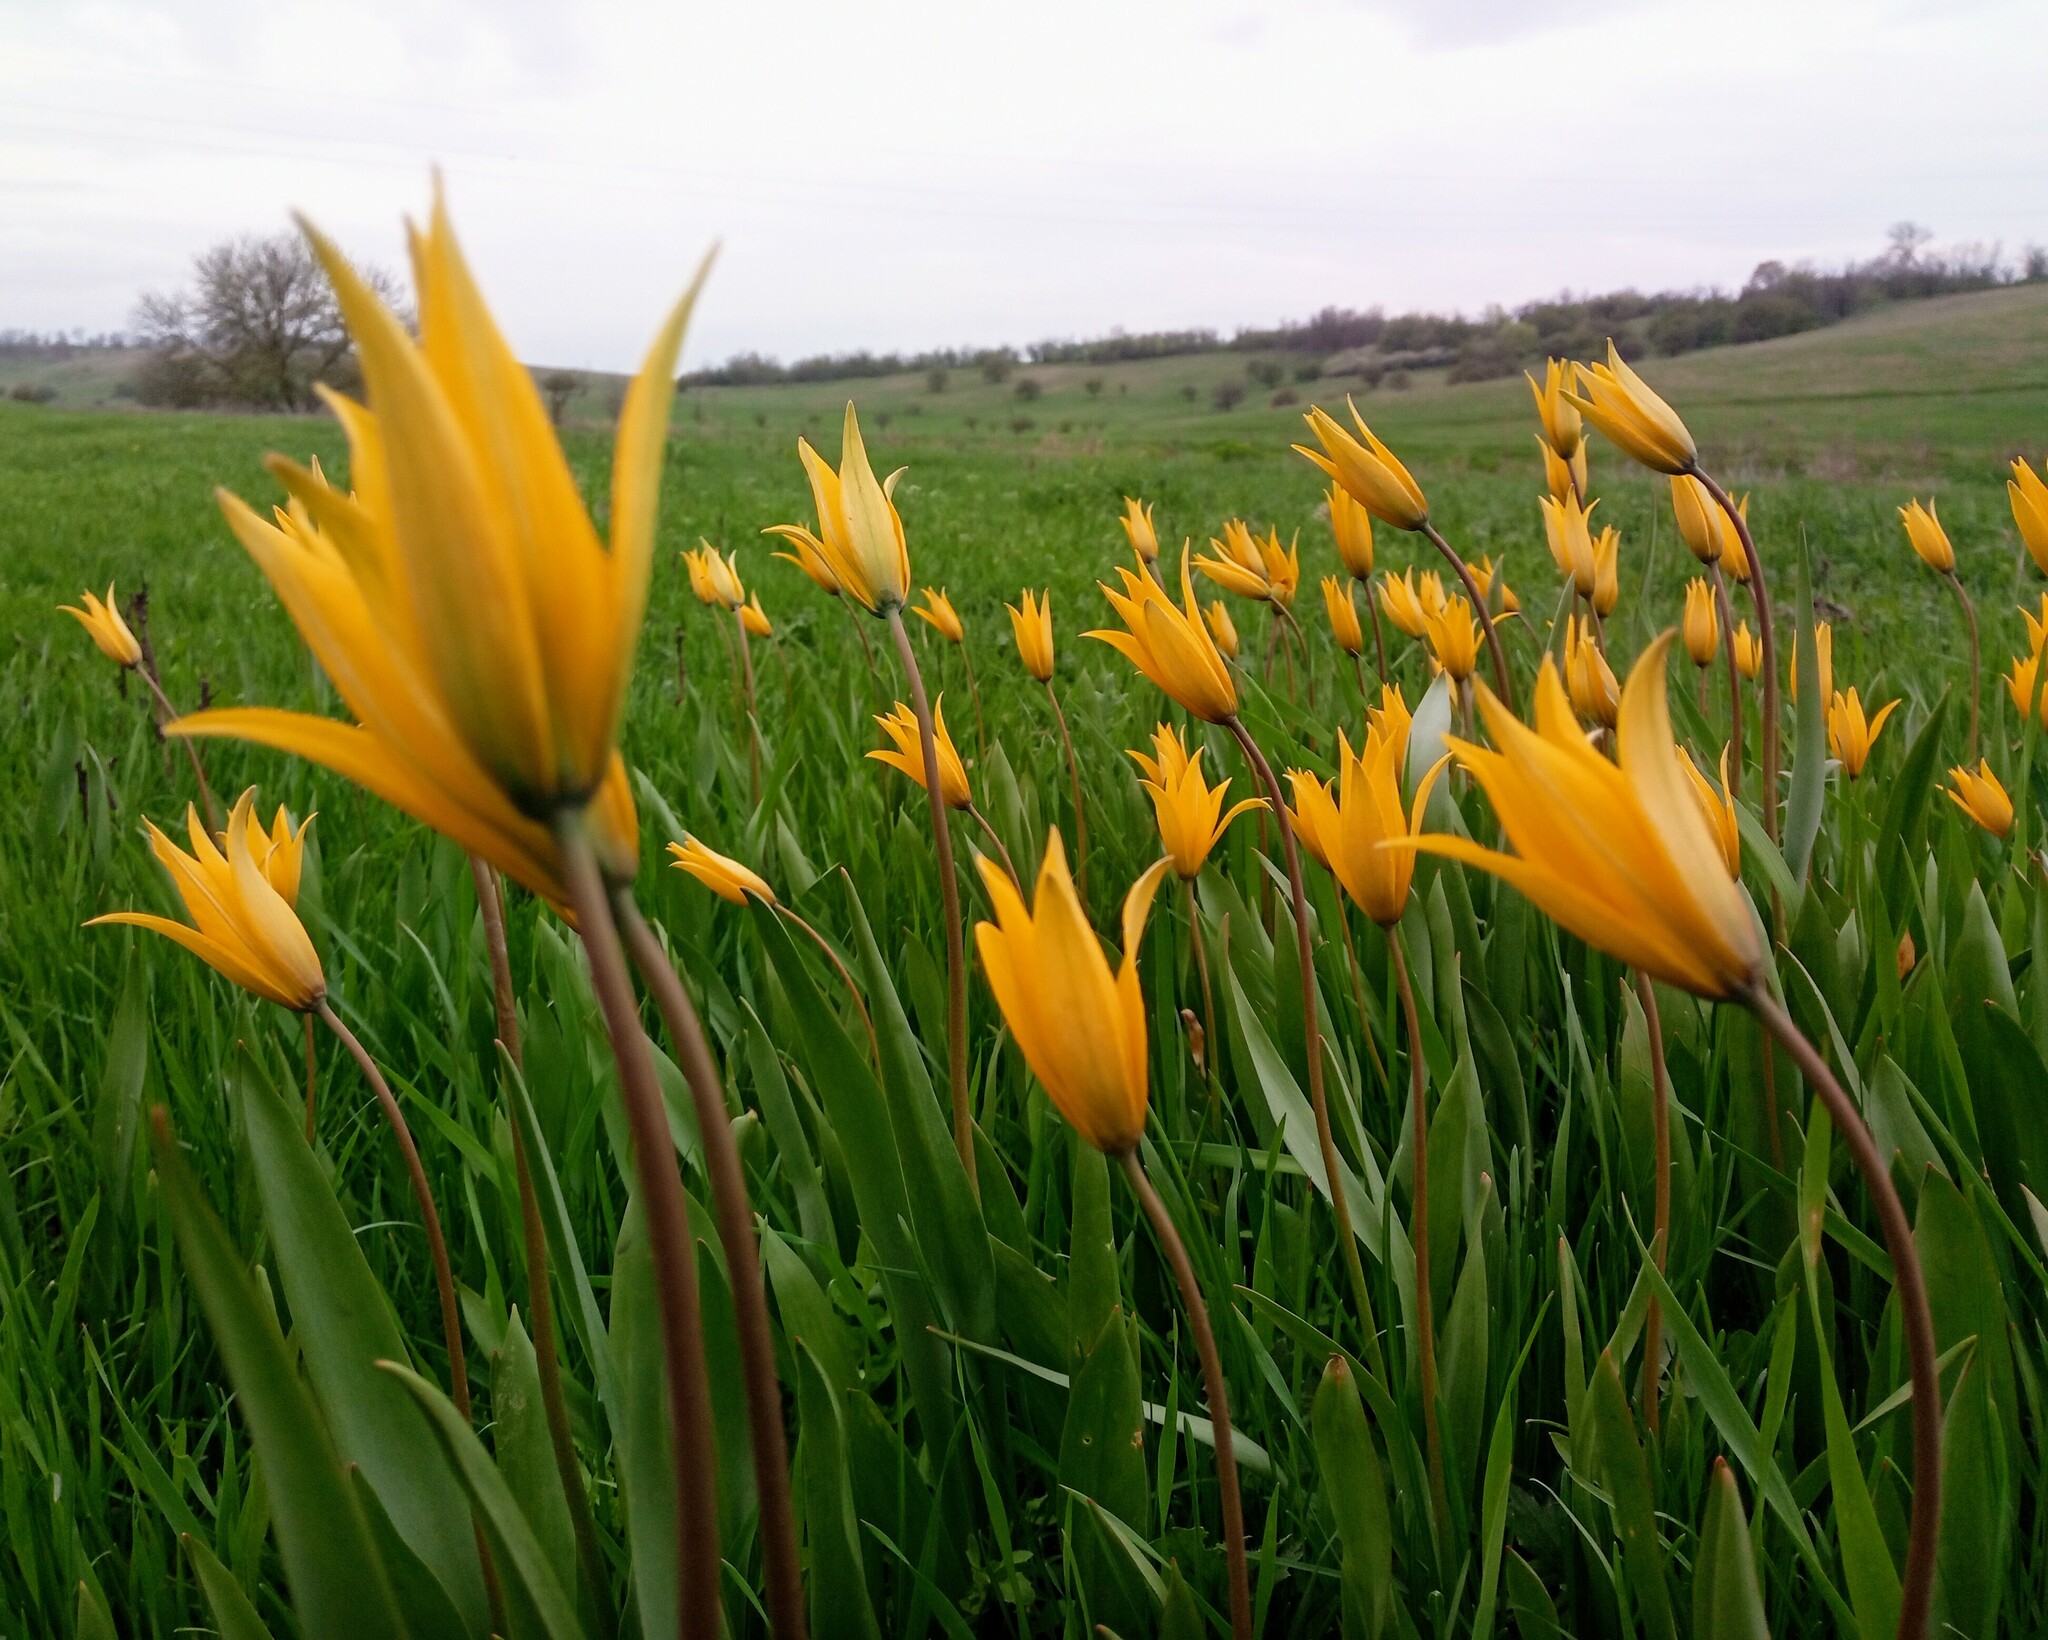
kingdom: Plantae
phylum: Tracheophyta
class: Liliopsida
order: Liliales
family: Liliaceae
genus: Tulipa
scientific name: Tulipa sylvestris
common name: Wild tulip
